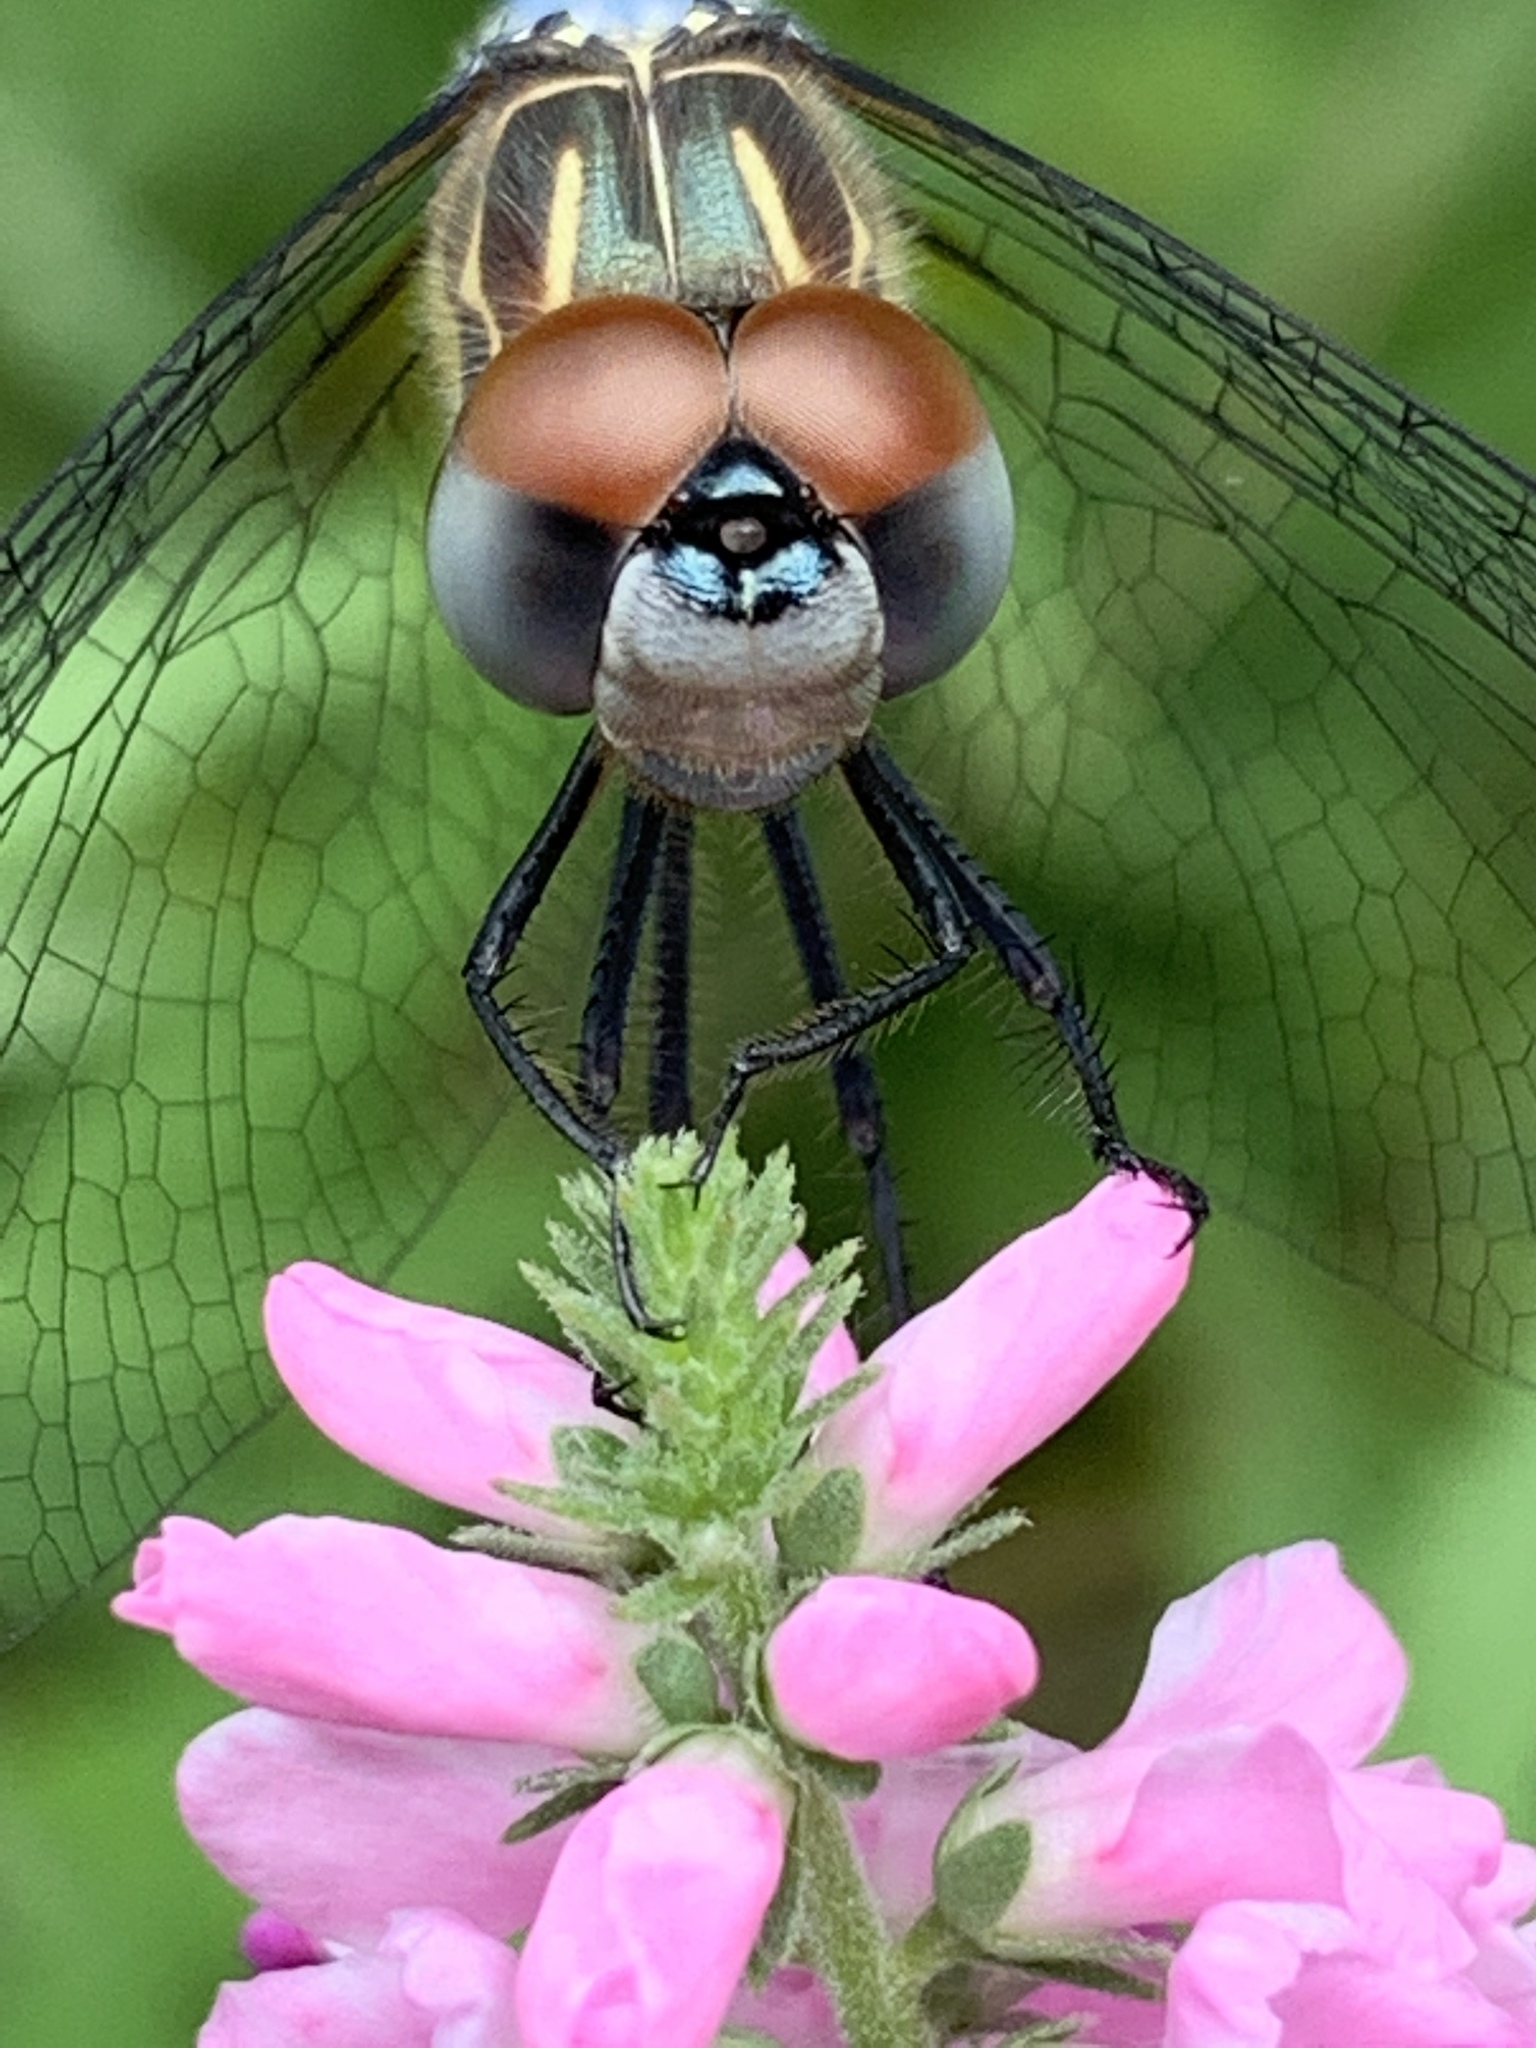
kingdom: Animalia
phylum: Arthropoda
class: Insecta
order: Odonata
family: Libellulidae
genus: Pachydiplax
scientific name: Pachydiplax longipennis
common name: Blue dasher
